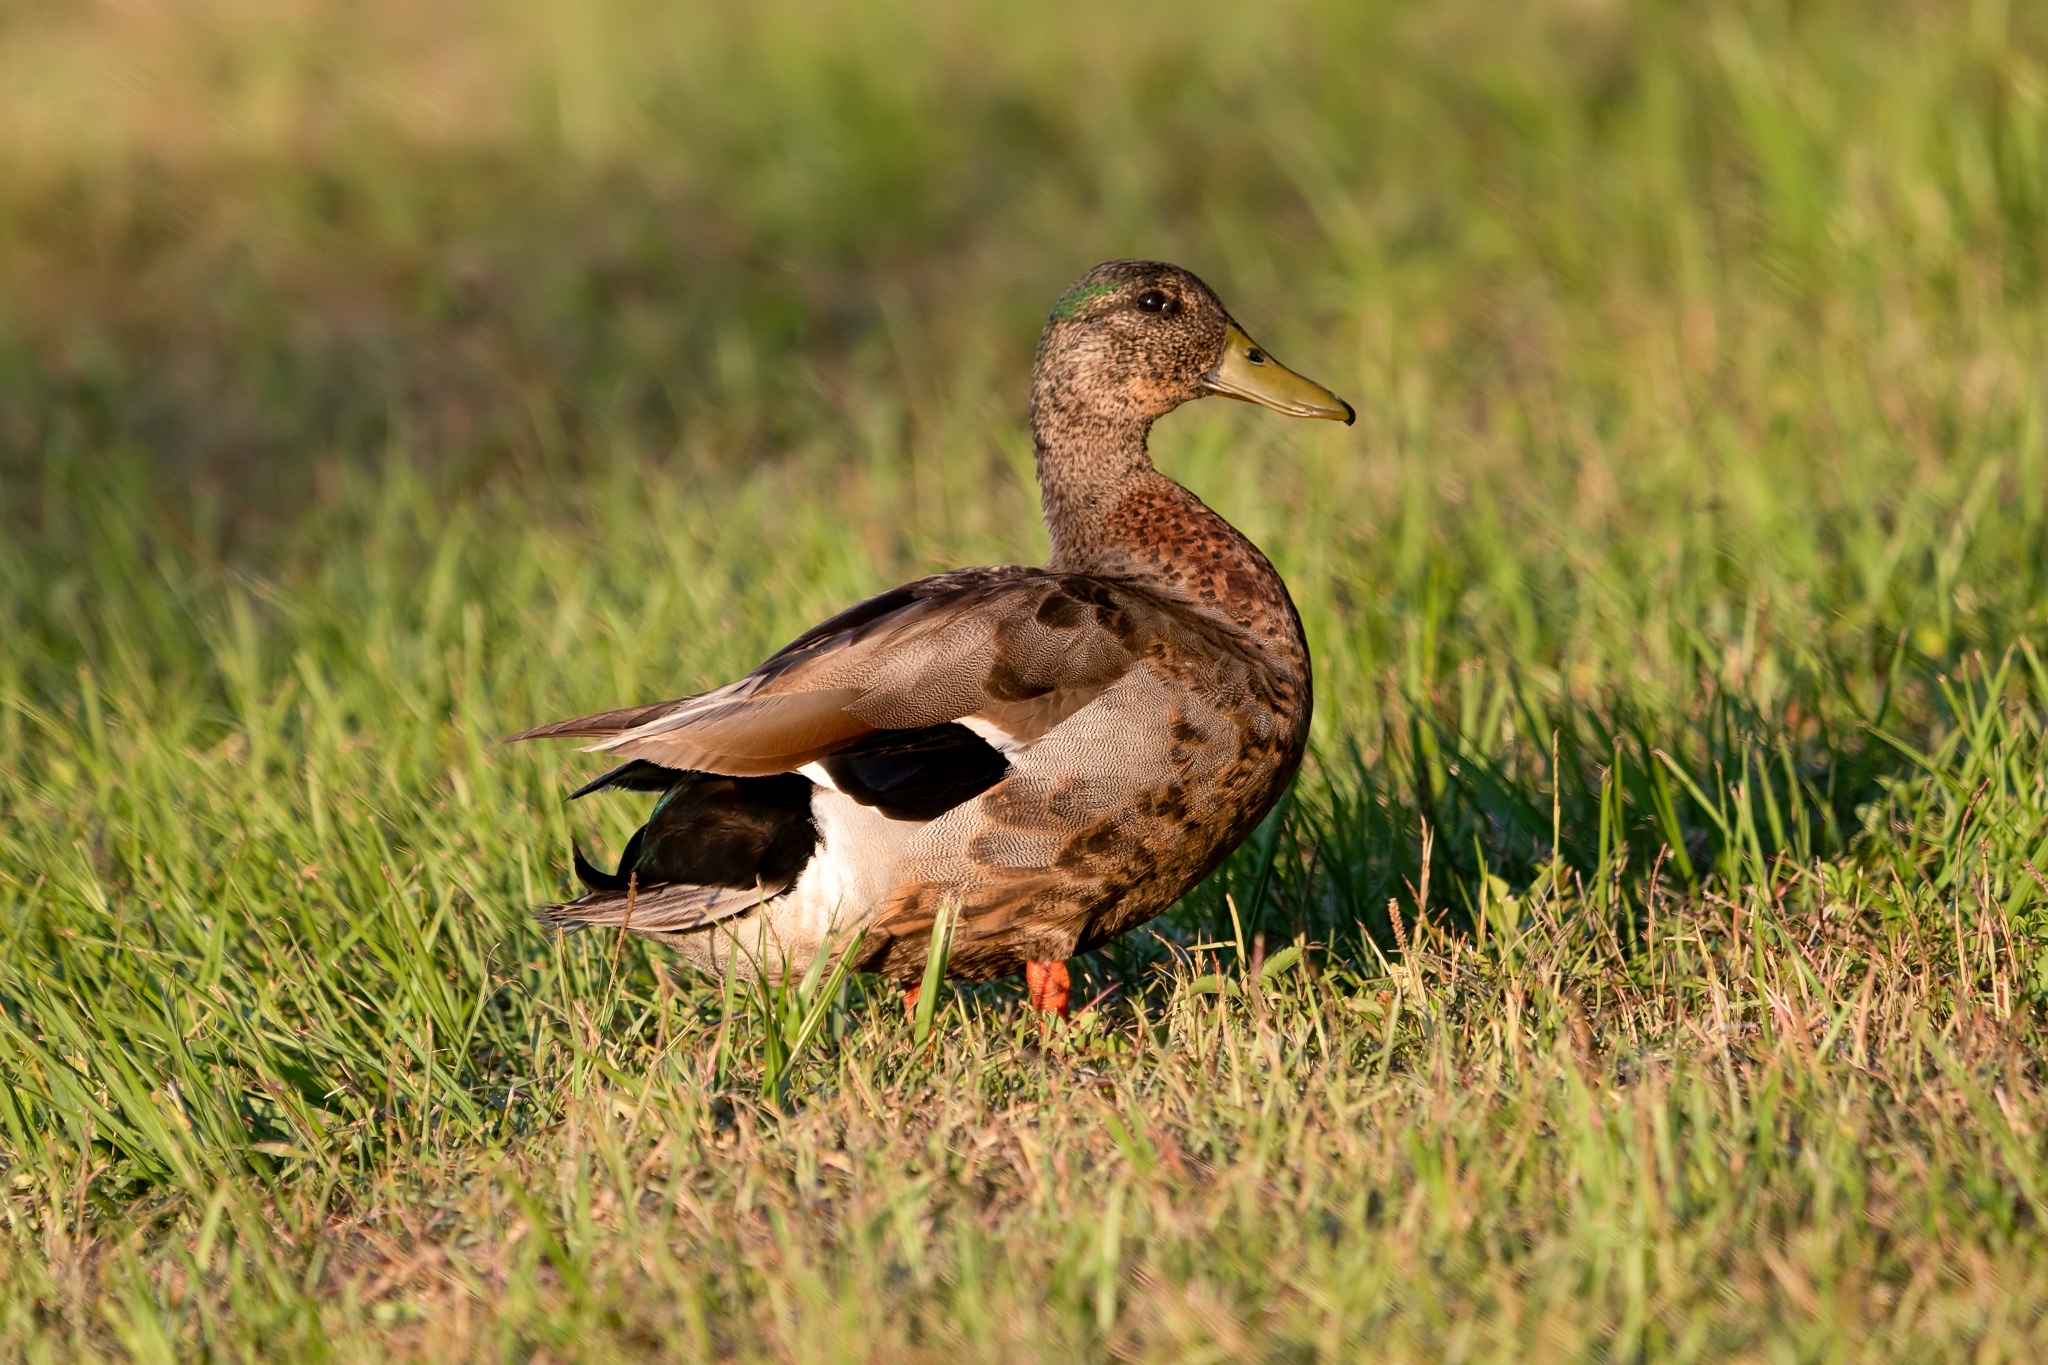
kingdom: Animalia
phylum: Chordata
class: Aves
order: Anseriformes
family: Anatidae
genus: Anas
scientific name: Anas platyrhynchos
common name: Mallard
